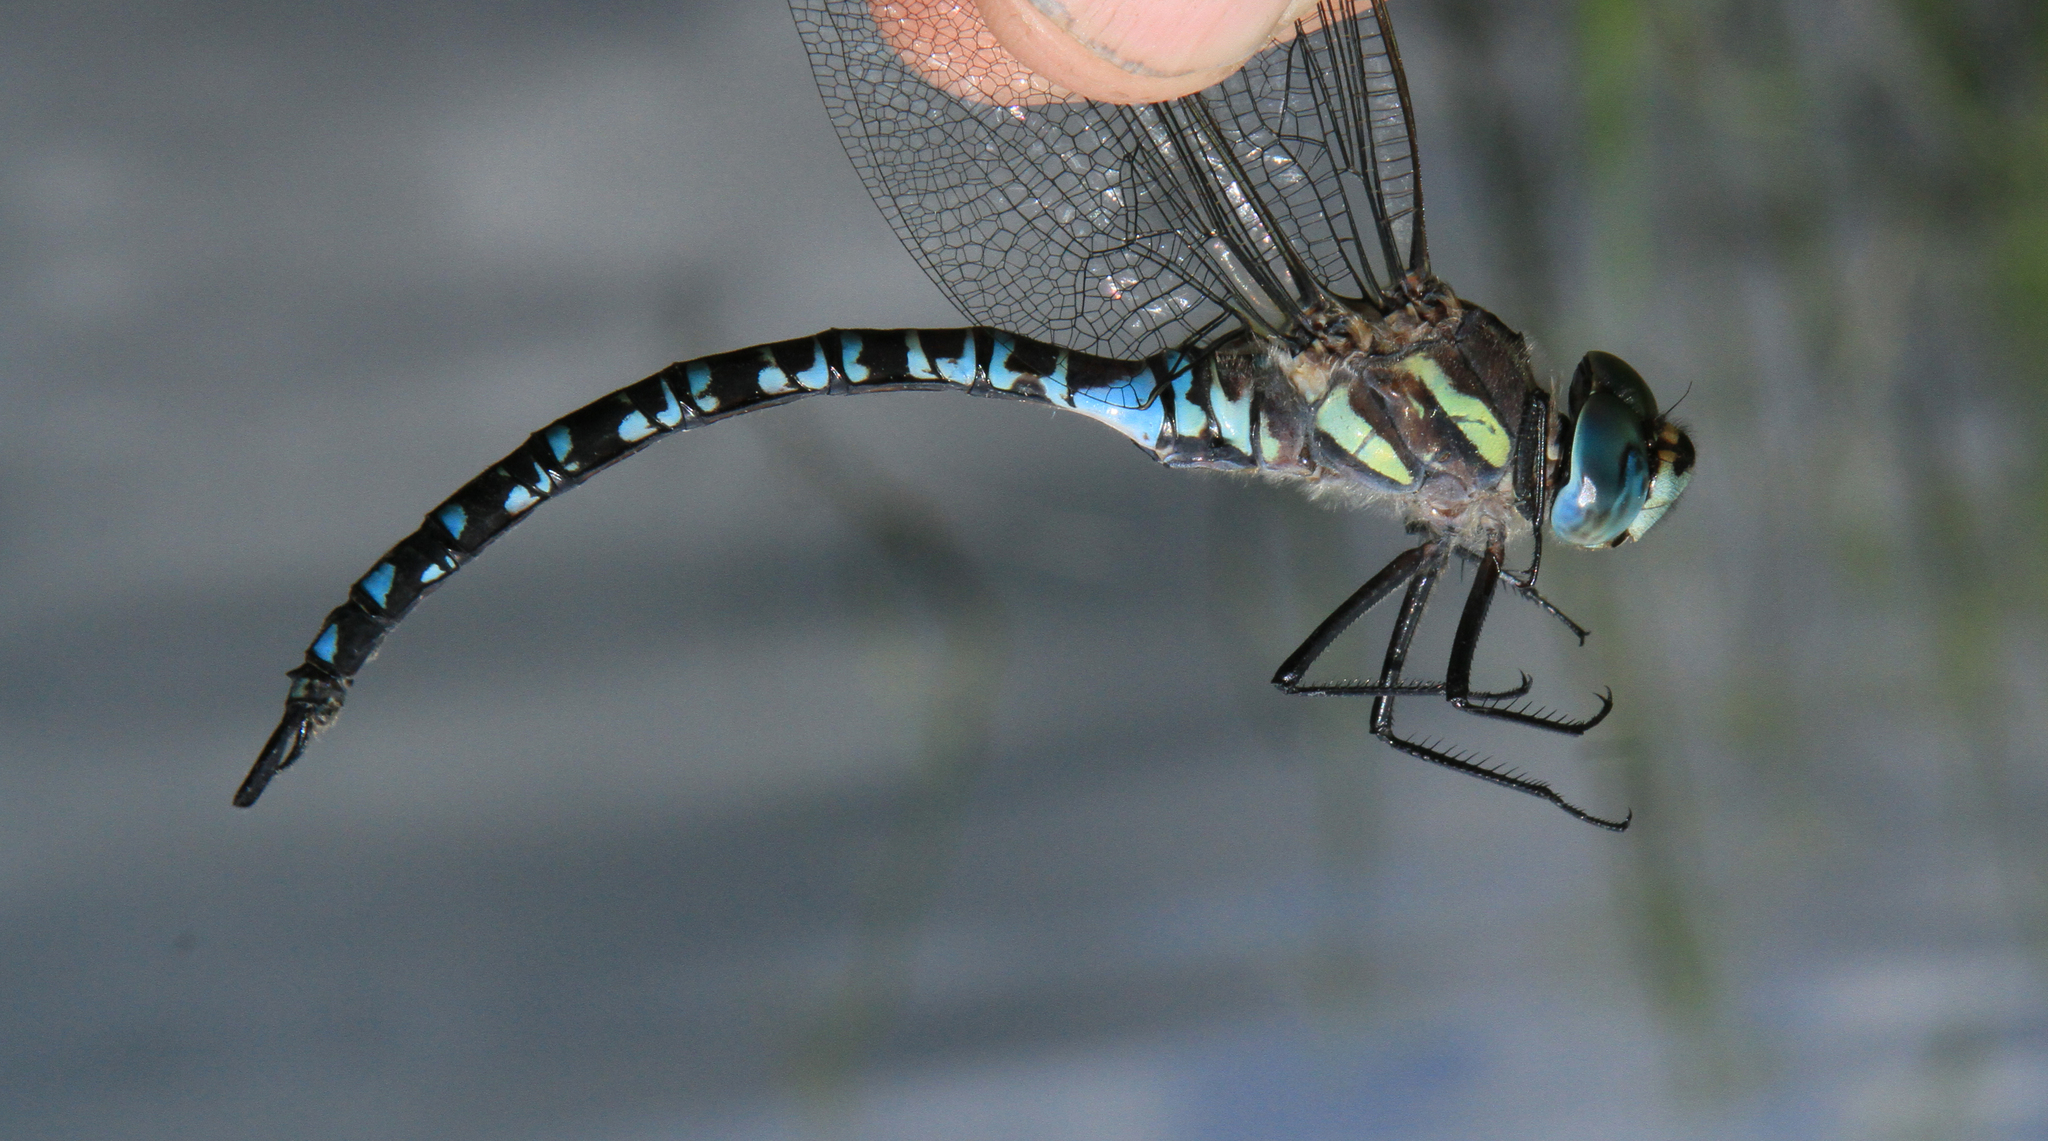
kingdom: Animalia
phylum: Arthropoda
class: Insecta
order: Odonata
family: Aeshnidae
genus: Aeshna
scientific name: Aeshna crenata
